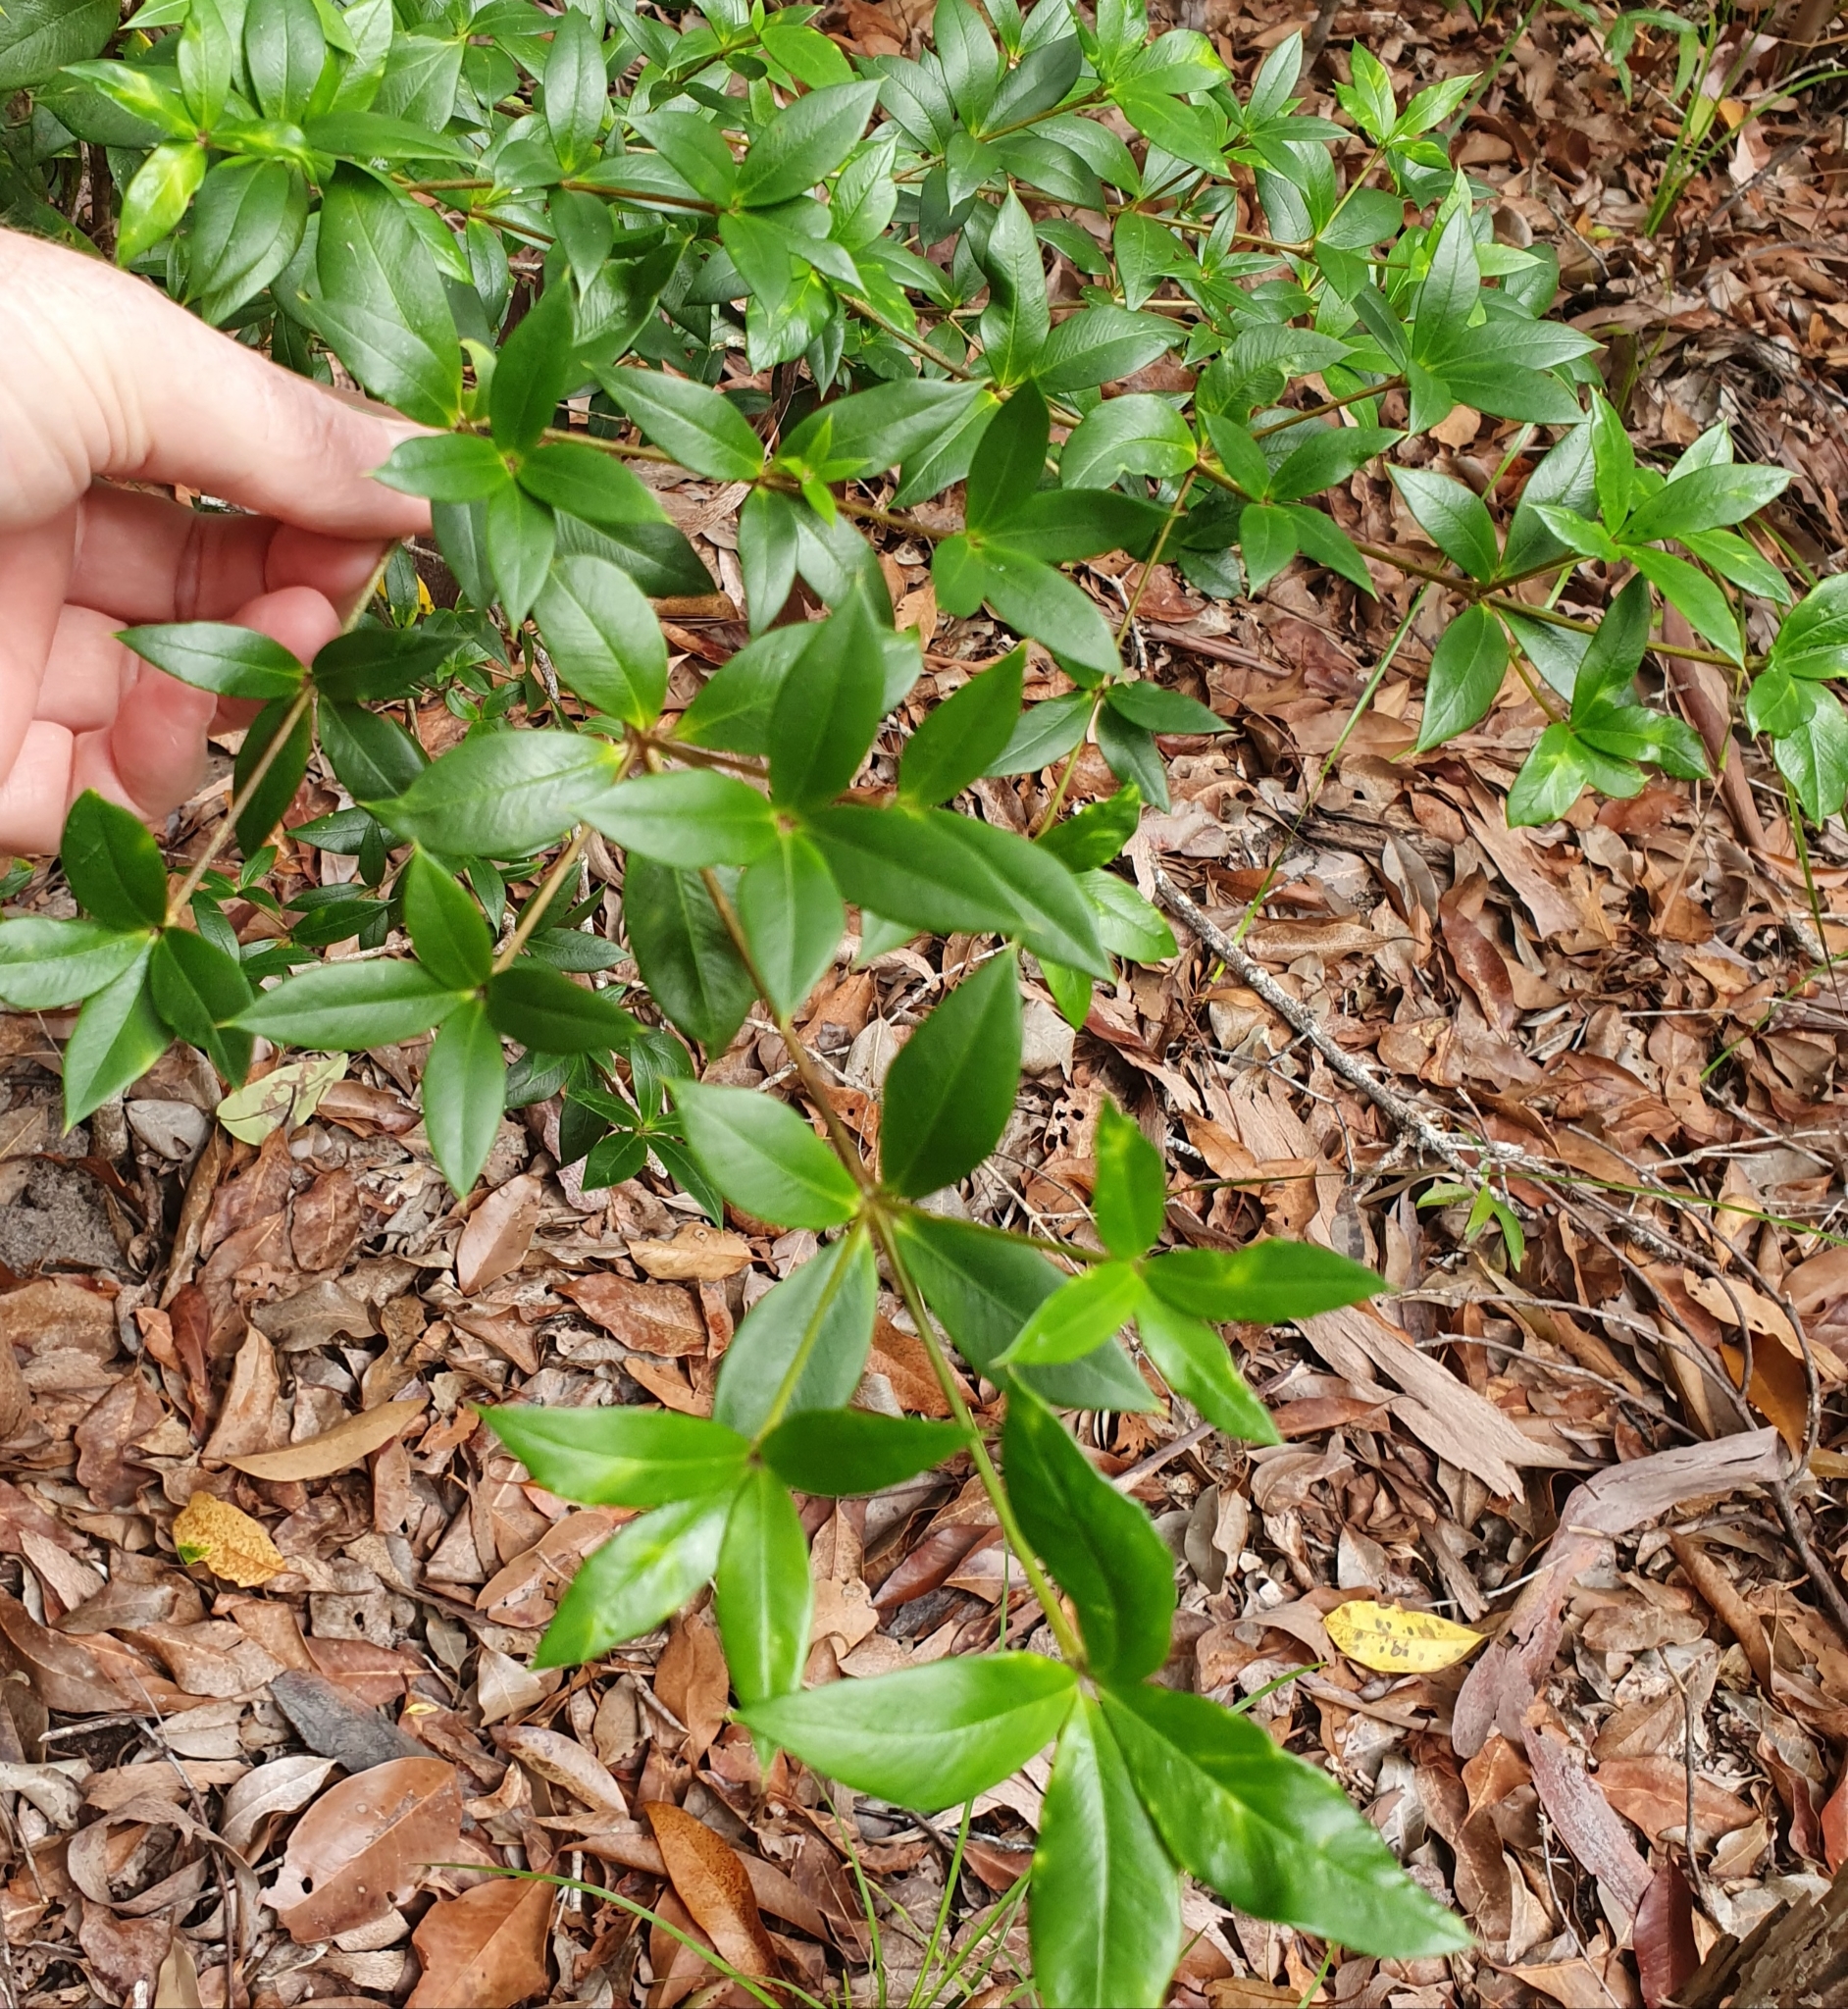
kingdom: Plantae
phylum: Tracheophyta
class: Magnoliopsida
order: Gentianales
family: Apocynaceae
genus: Alyxia
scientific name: Alyxia ruscifolia
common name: Chainfruit
